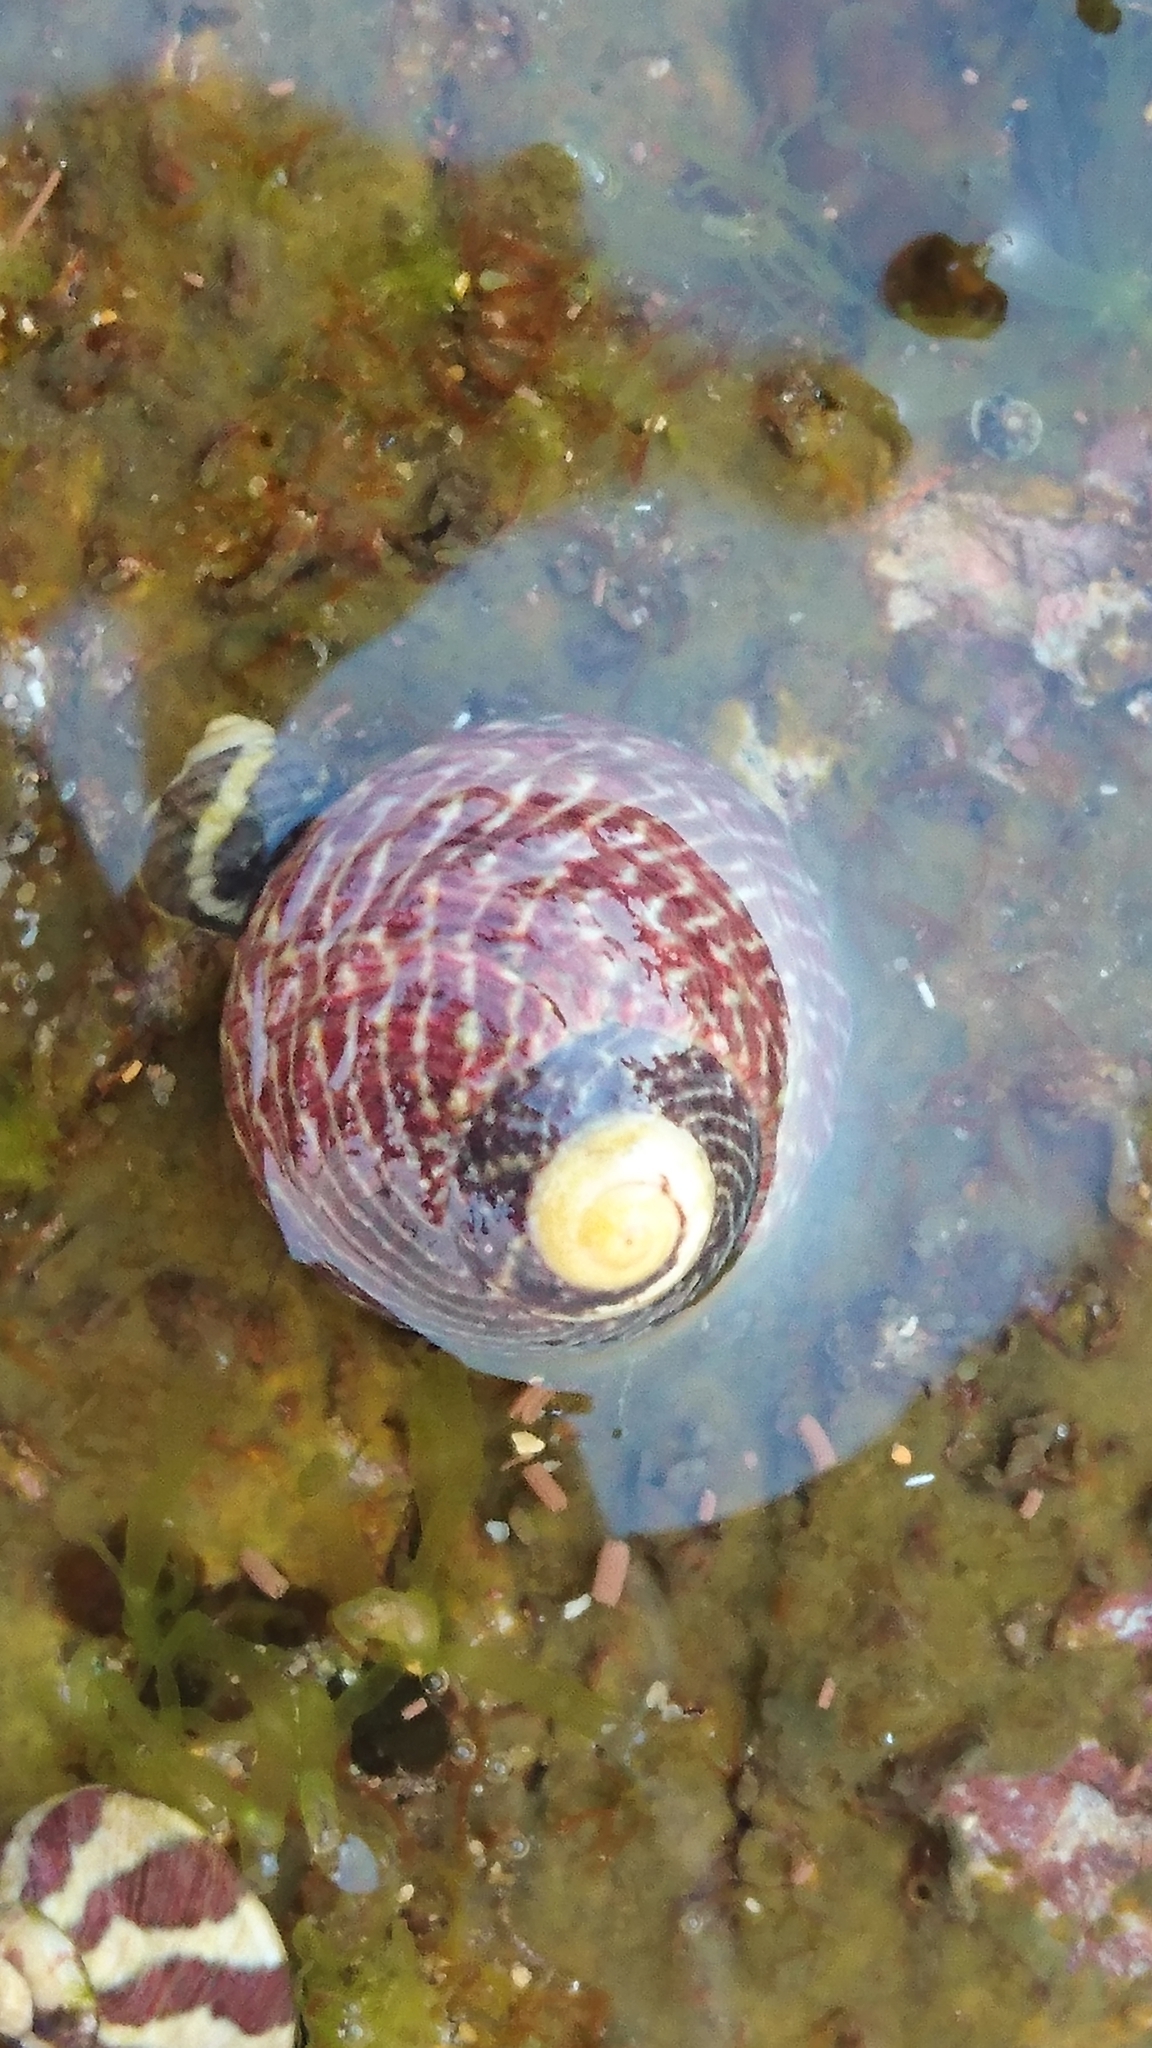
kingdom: Animalia
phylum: Mollusca
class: Gastropoda
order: Trochida
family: Trochidae
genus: Austrocochlea
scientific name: Austrocochlea porcata
